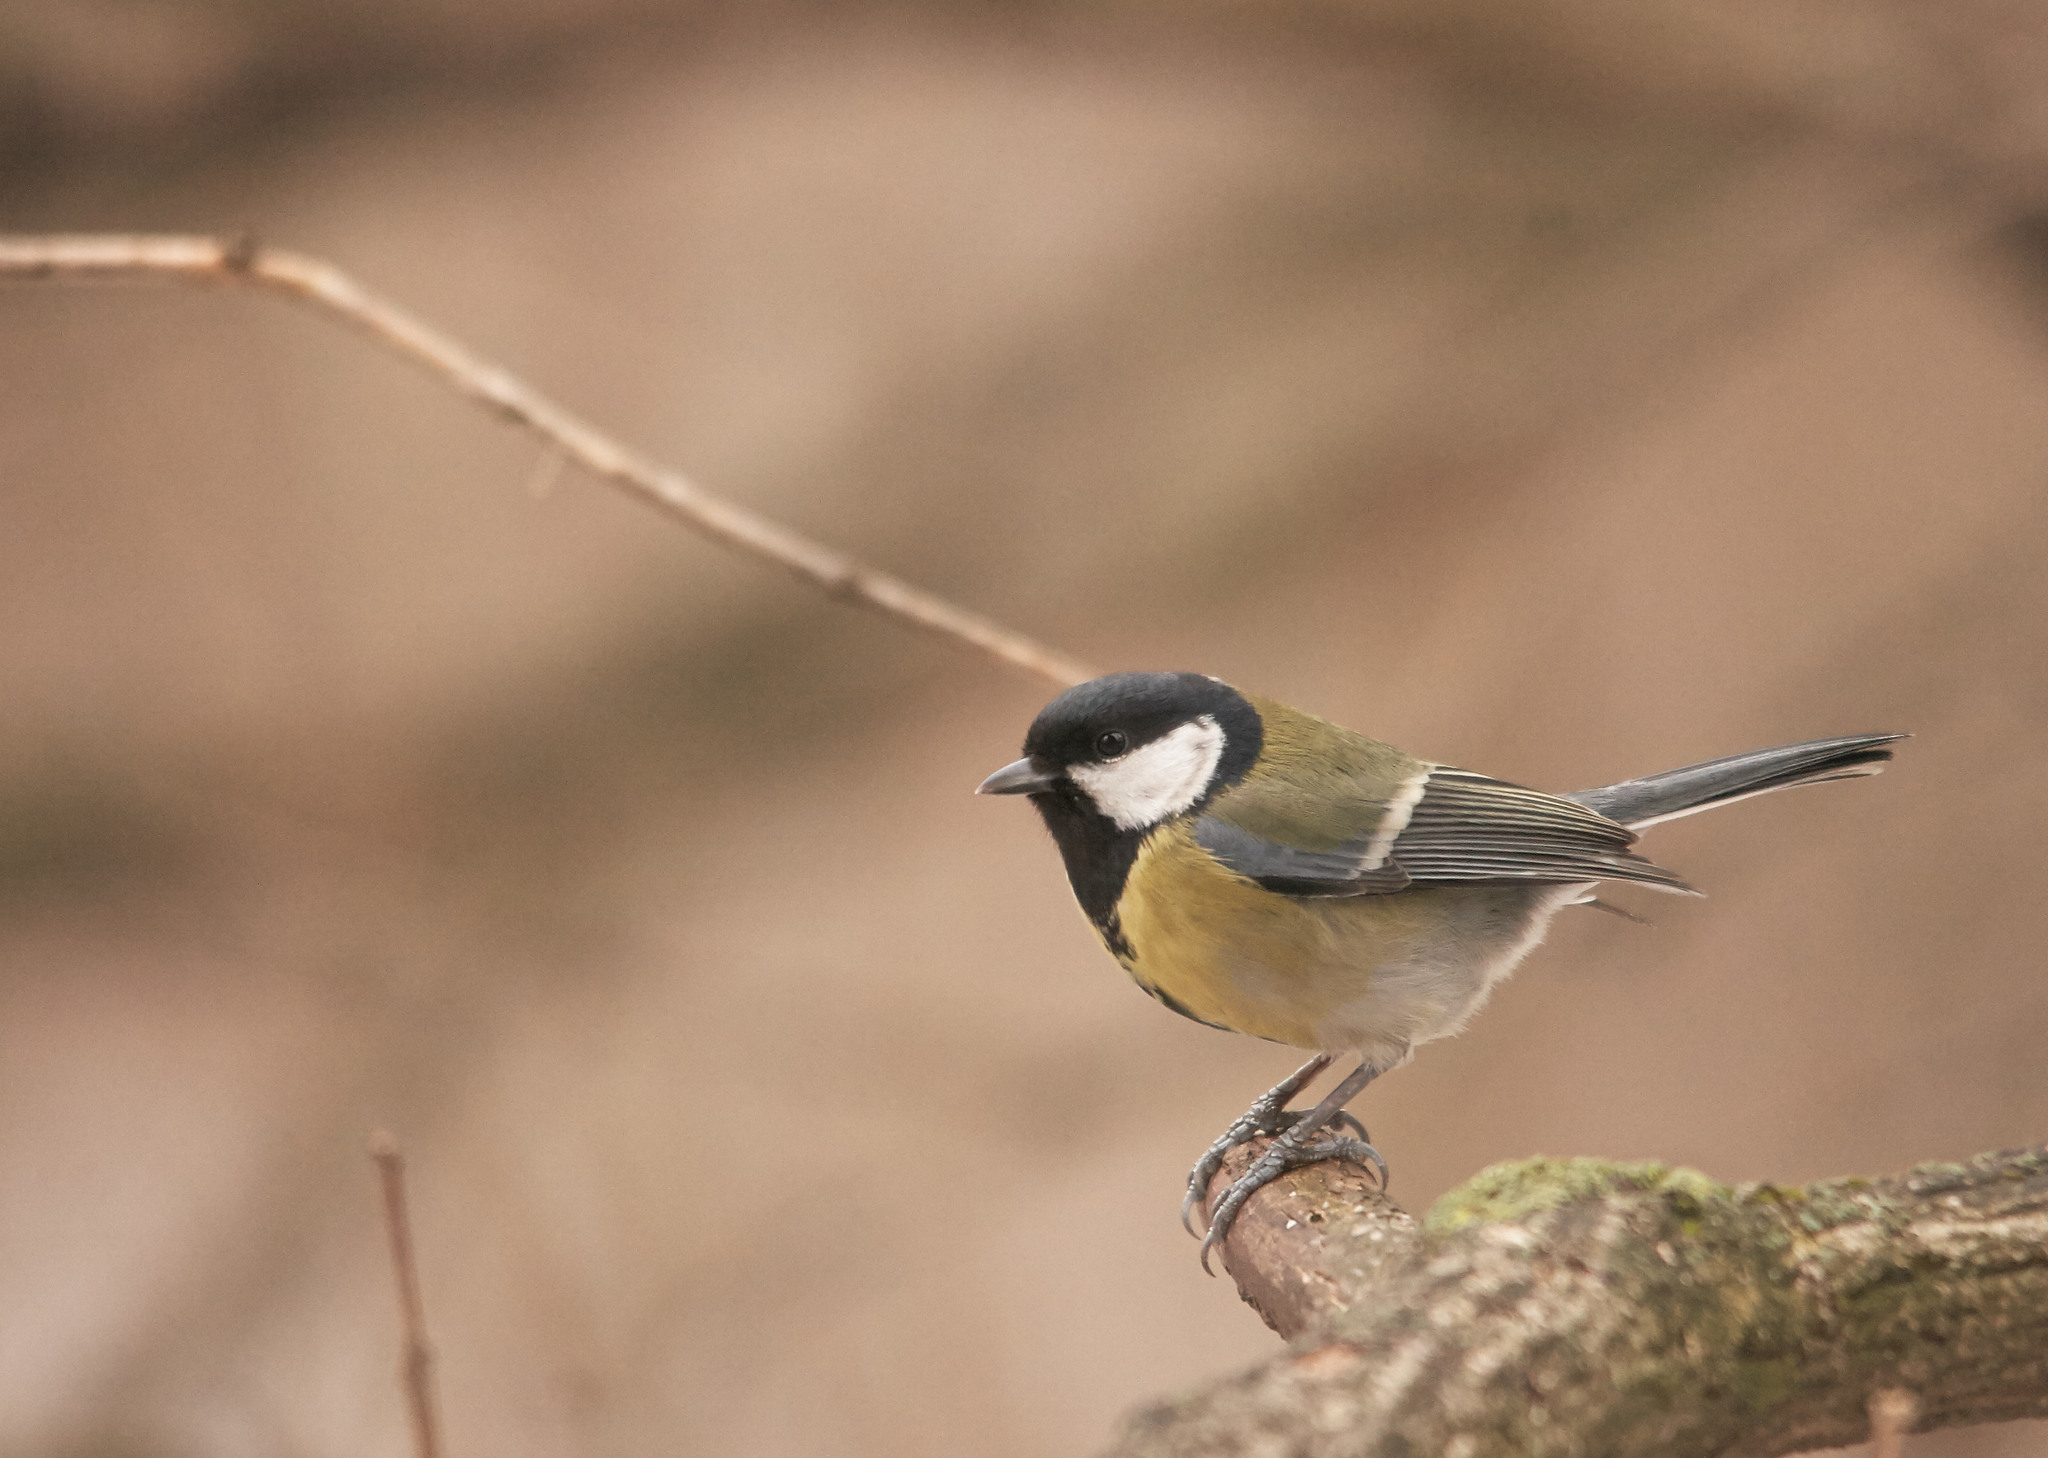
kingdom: Animalia
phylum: Chordata
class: Aves
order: Passeriformes
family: Paridae
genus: Parus
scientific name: Parus major
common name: Great tit
